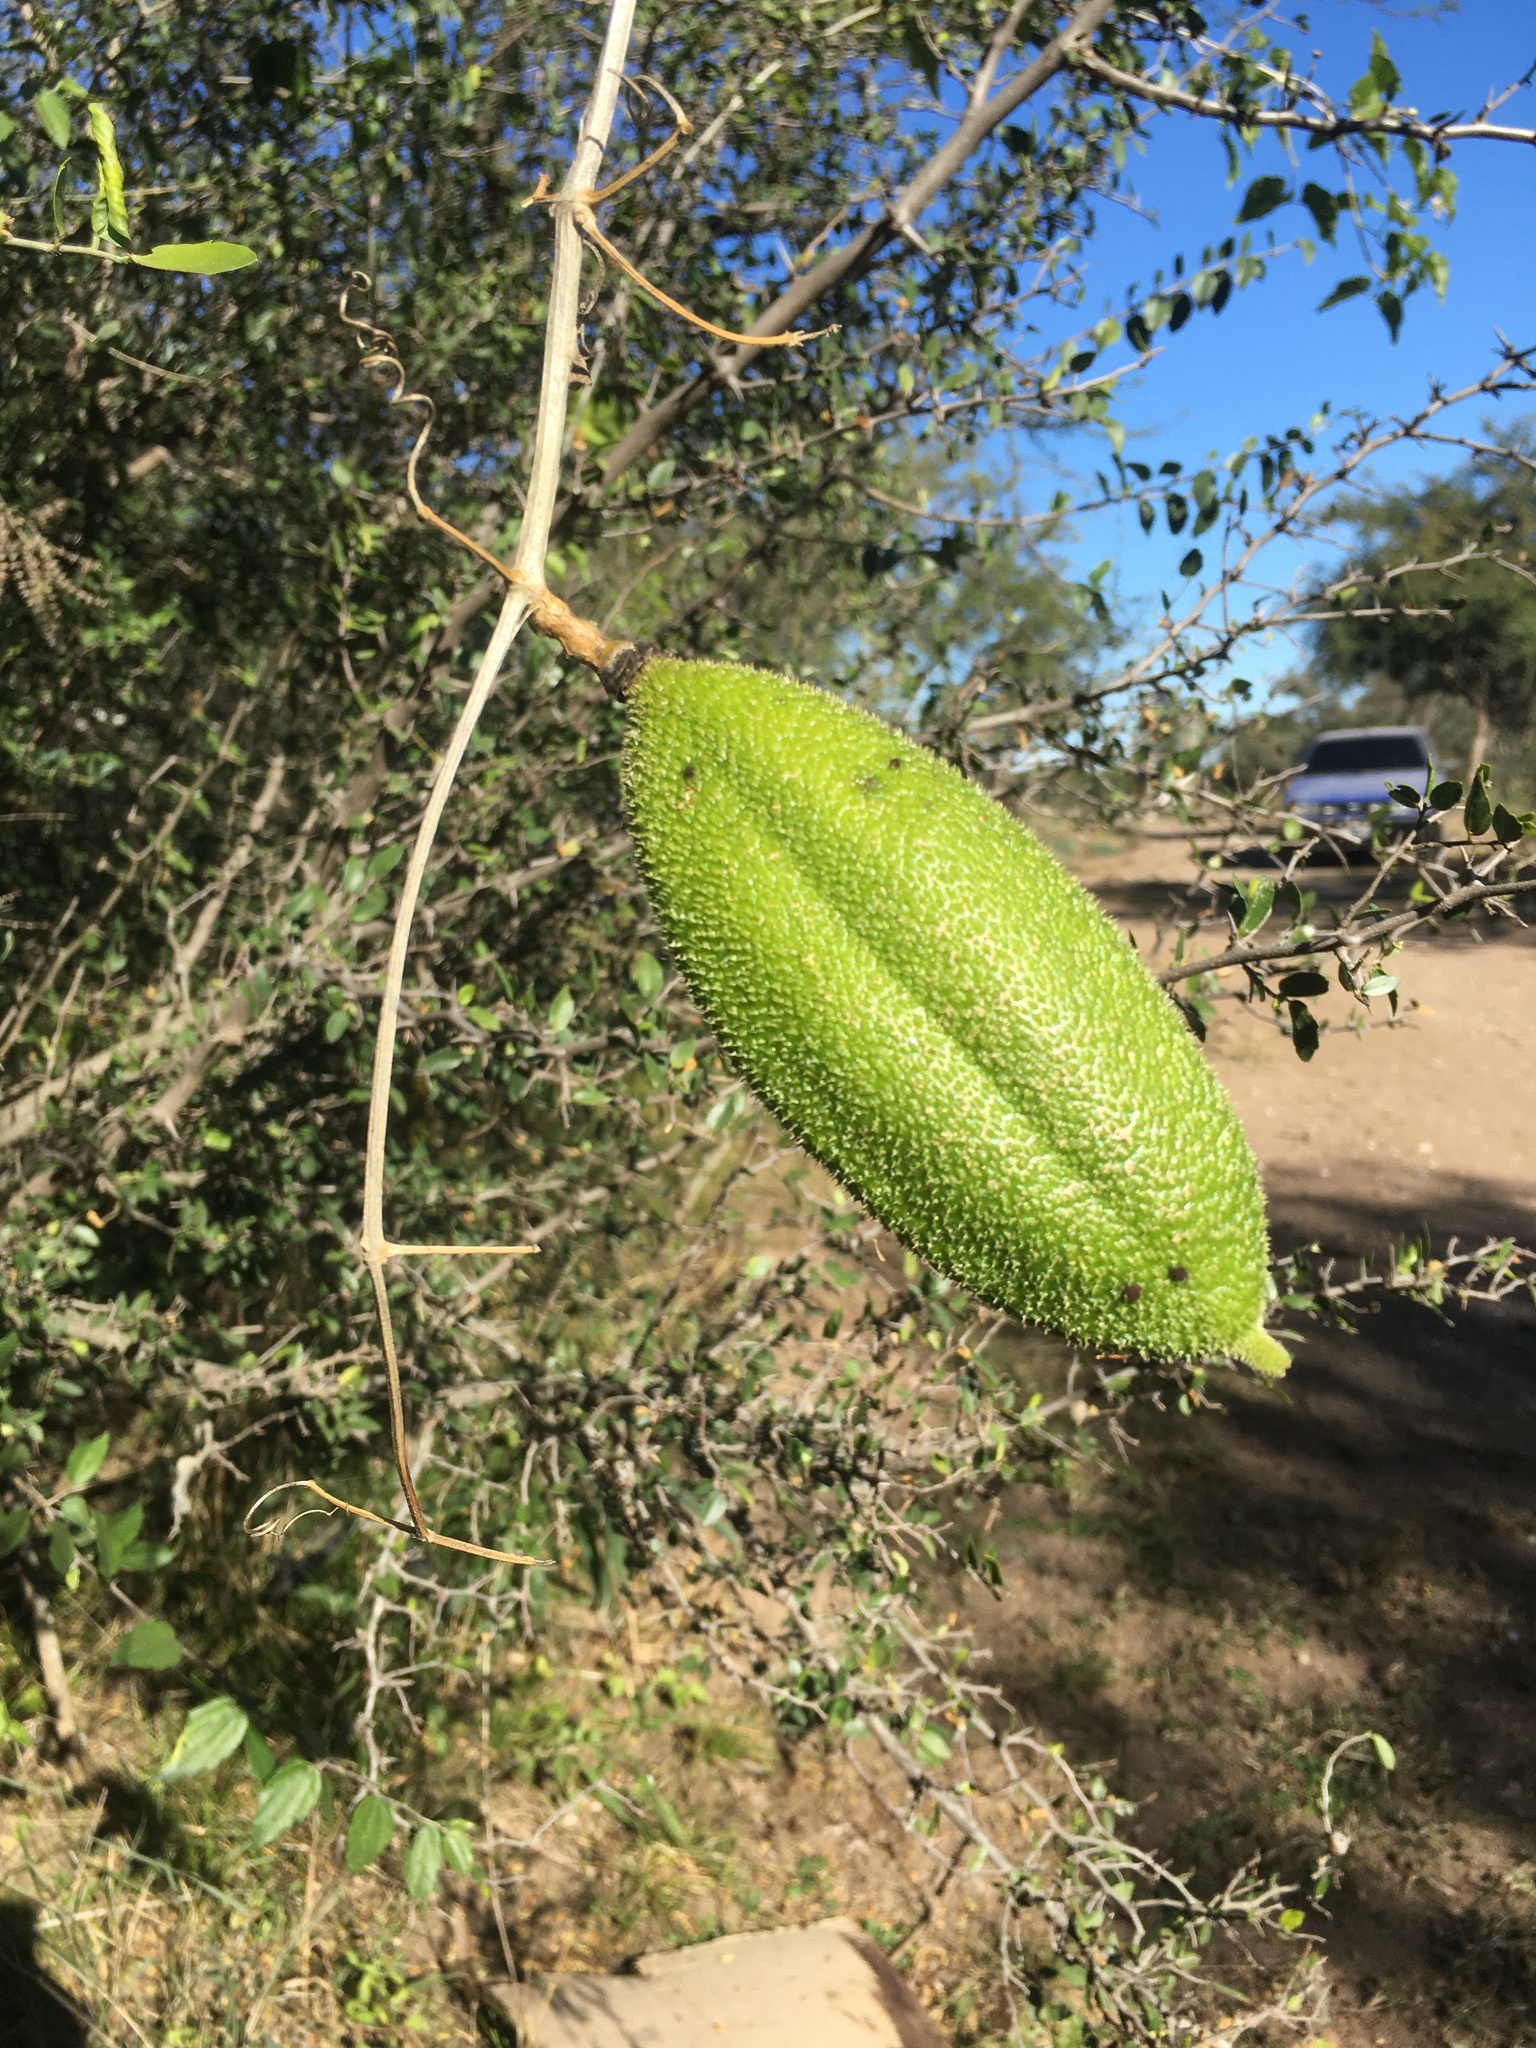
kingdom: Plantae
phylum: Tracheophyta
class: Magnoliopsida
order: Lamiales
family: Bignoniaceae
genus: Amphilophium
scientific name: Amphilophium carolinae
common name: Monkey's-comb
